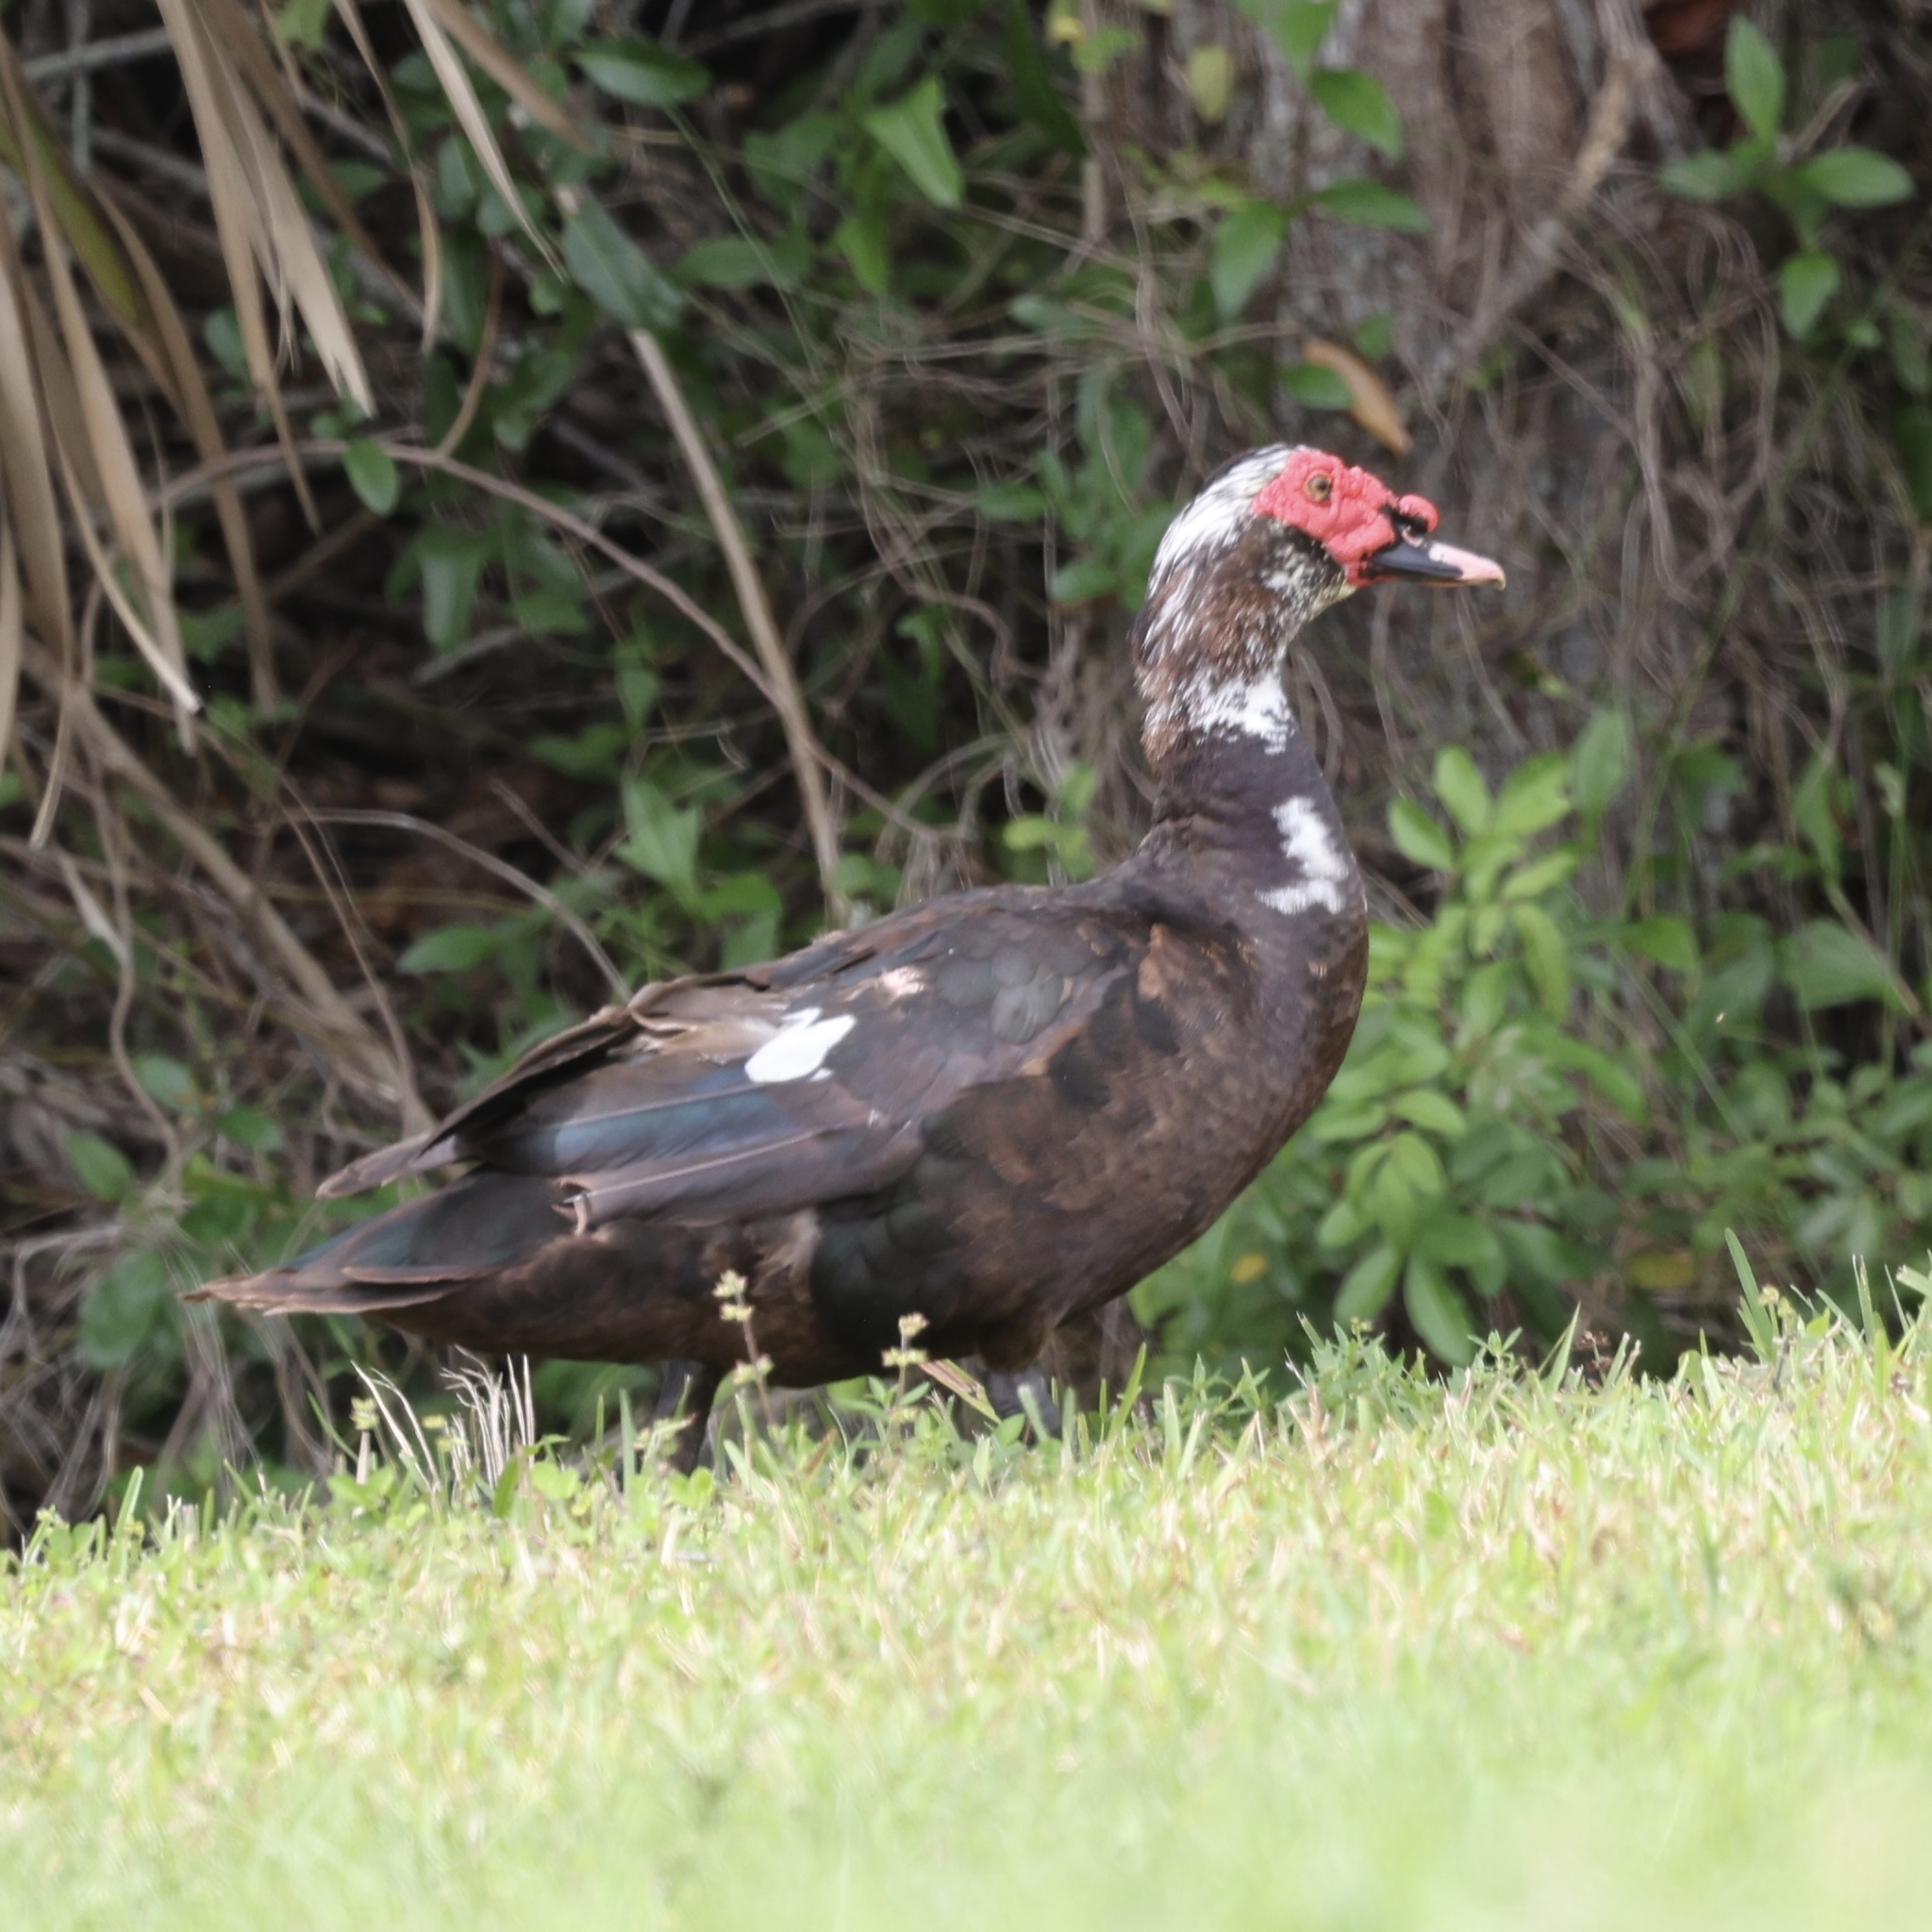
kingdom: Animalia
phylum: Chordata
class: Aves
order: Anseriformes
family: Anatidae
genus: Cairina
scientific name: Cairina moschata
